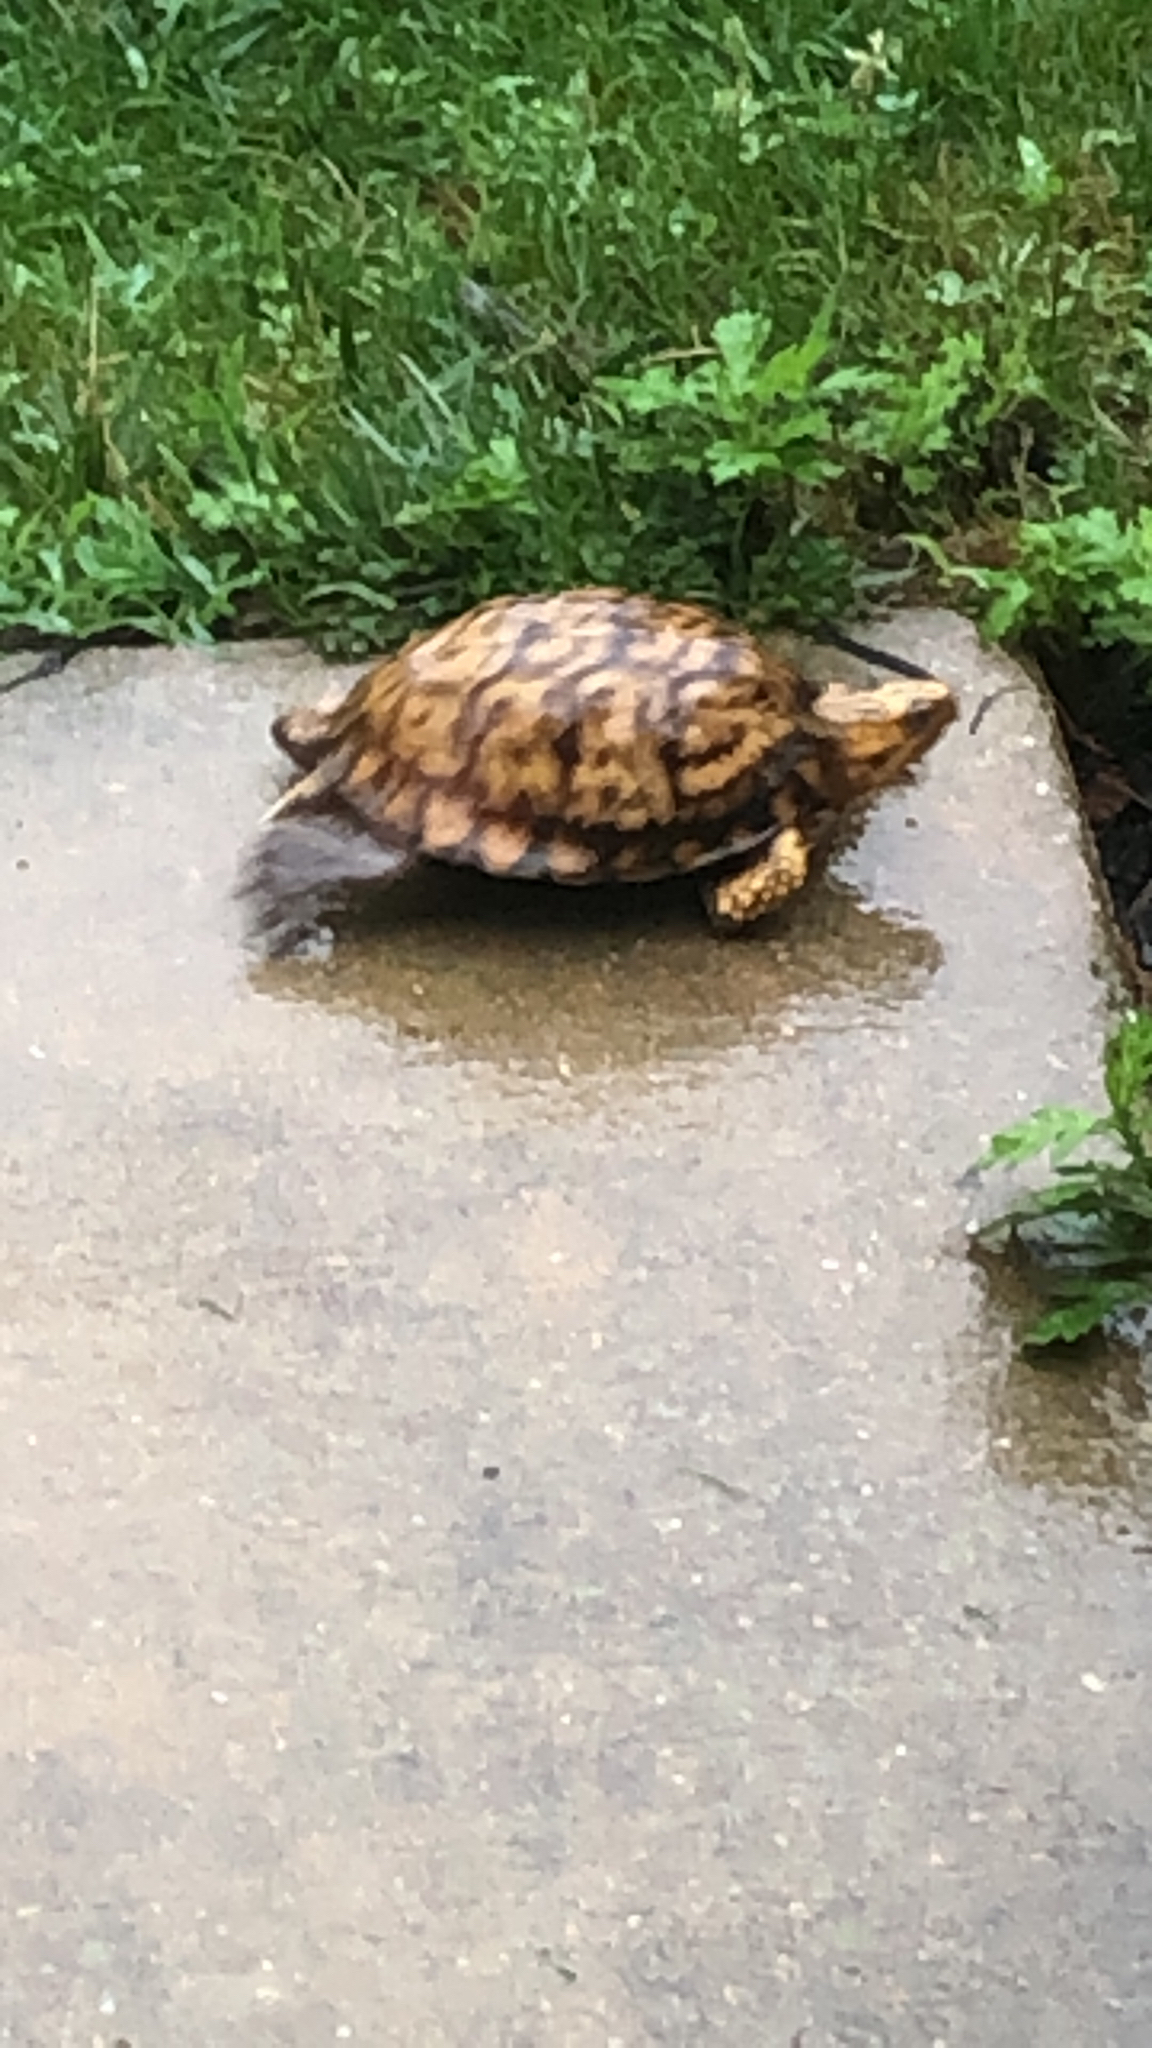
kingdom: Animalia
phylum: Chordata
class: Testudines
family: Emydidae
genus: Terrapene
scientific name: Terrapene carolina
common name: Common box turtle
